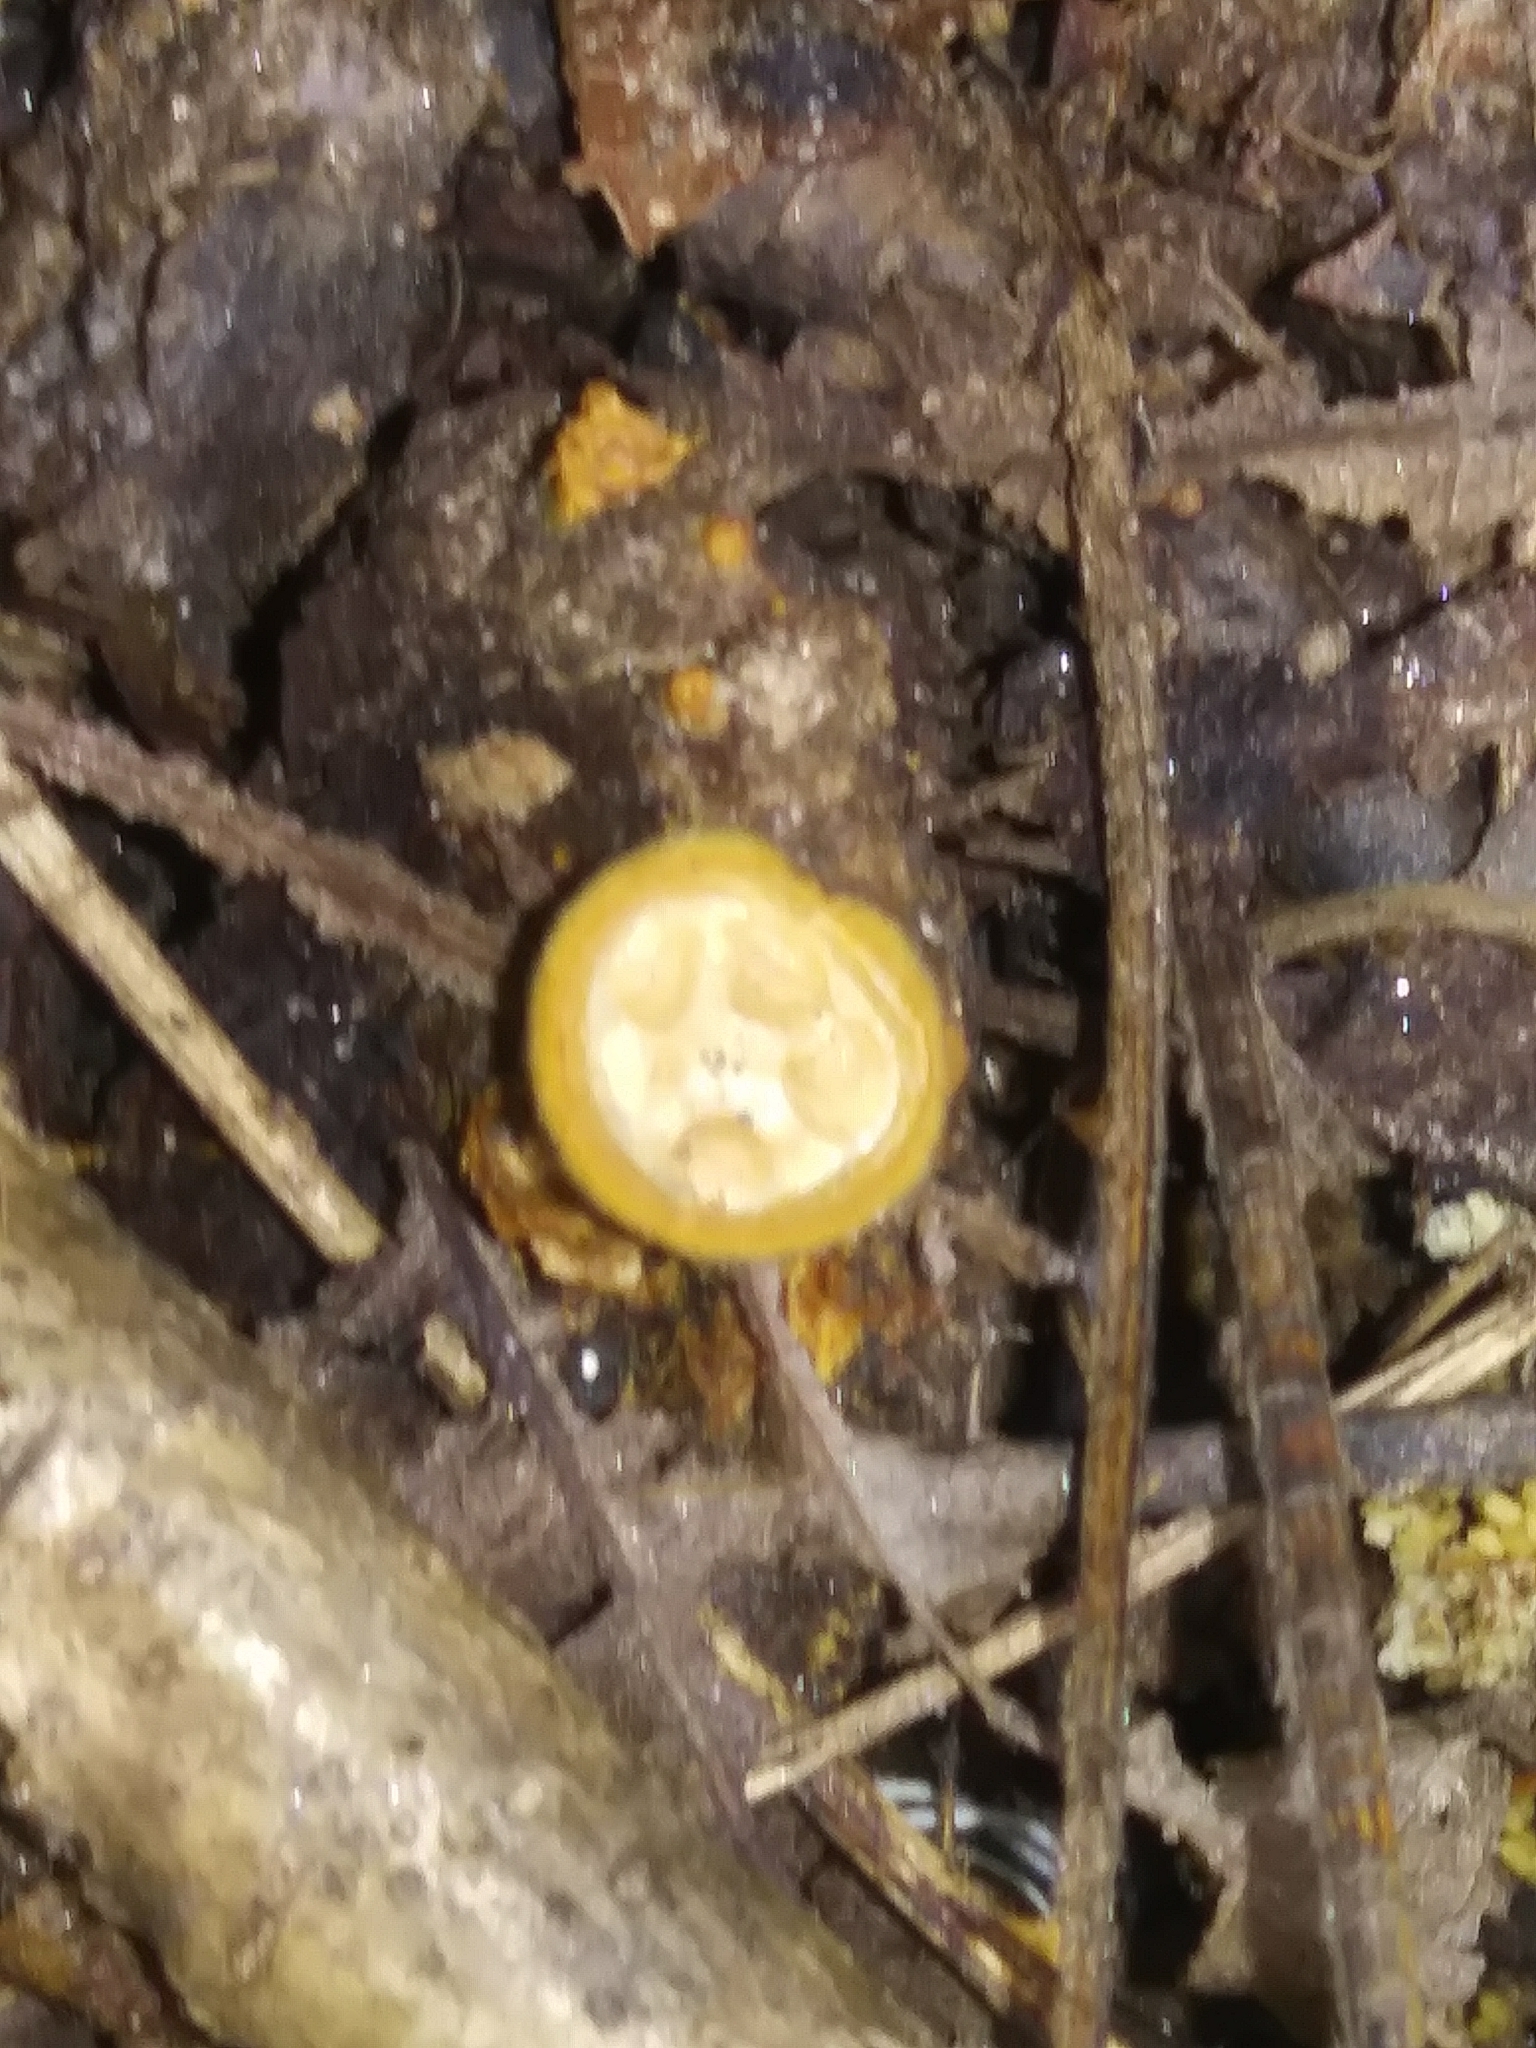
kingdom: Fungi
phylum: Basidiomycota
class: Agaricomycetes
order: Agaricales
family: Nidulariaceae
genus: Crucibulum
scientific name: Crucibulum laeve
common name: Common bird's nest
